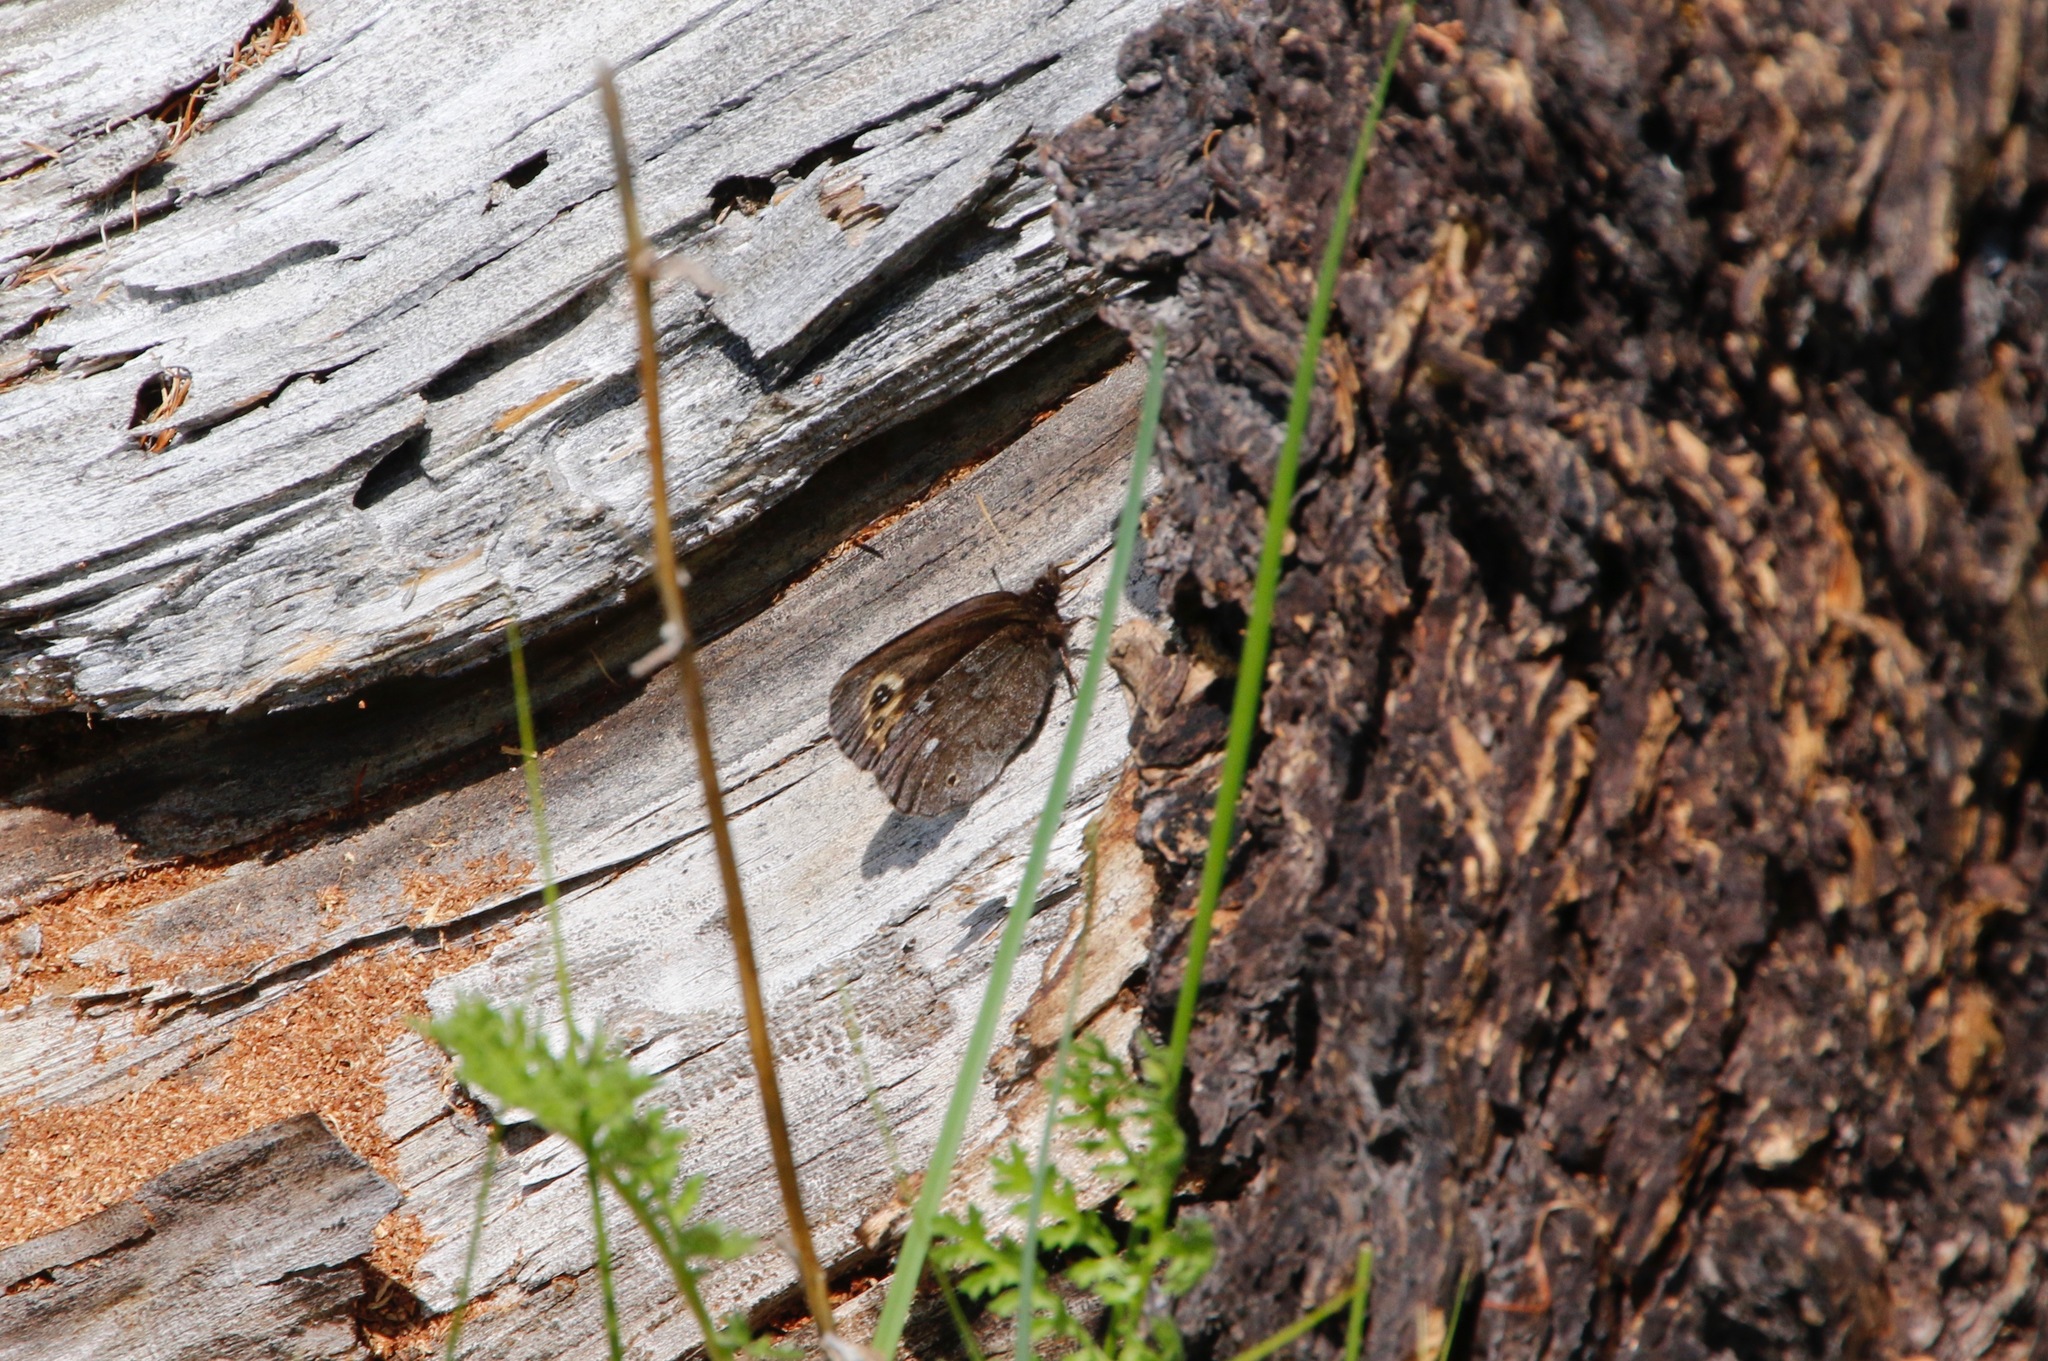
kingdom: Animalia
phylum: Arthropoda
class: Insecta
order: Lepidoptera
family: Nymphalidae
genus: Erebia
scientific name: Erebia embla
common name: Lapland ringlet
